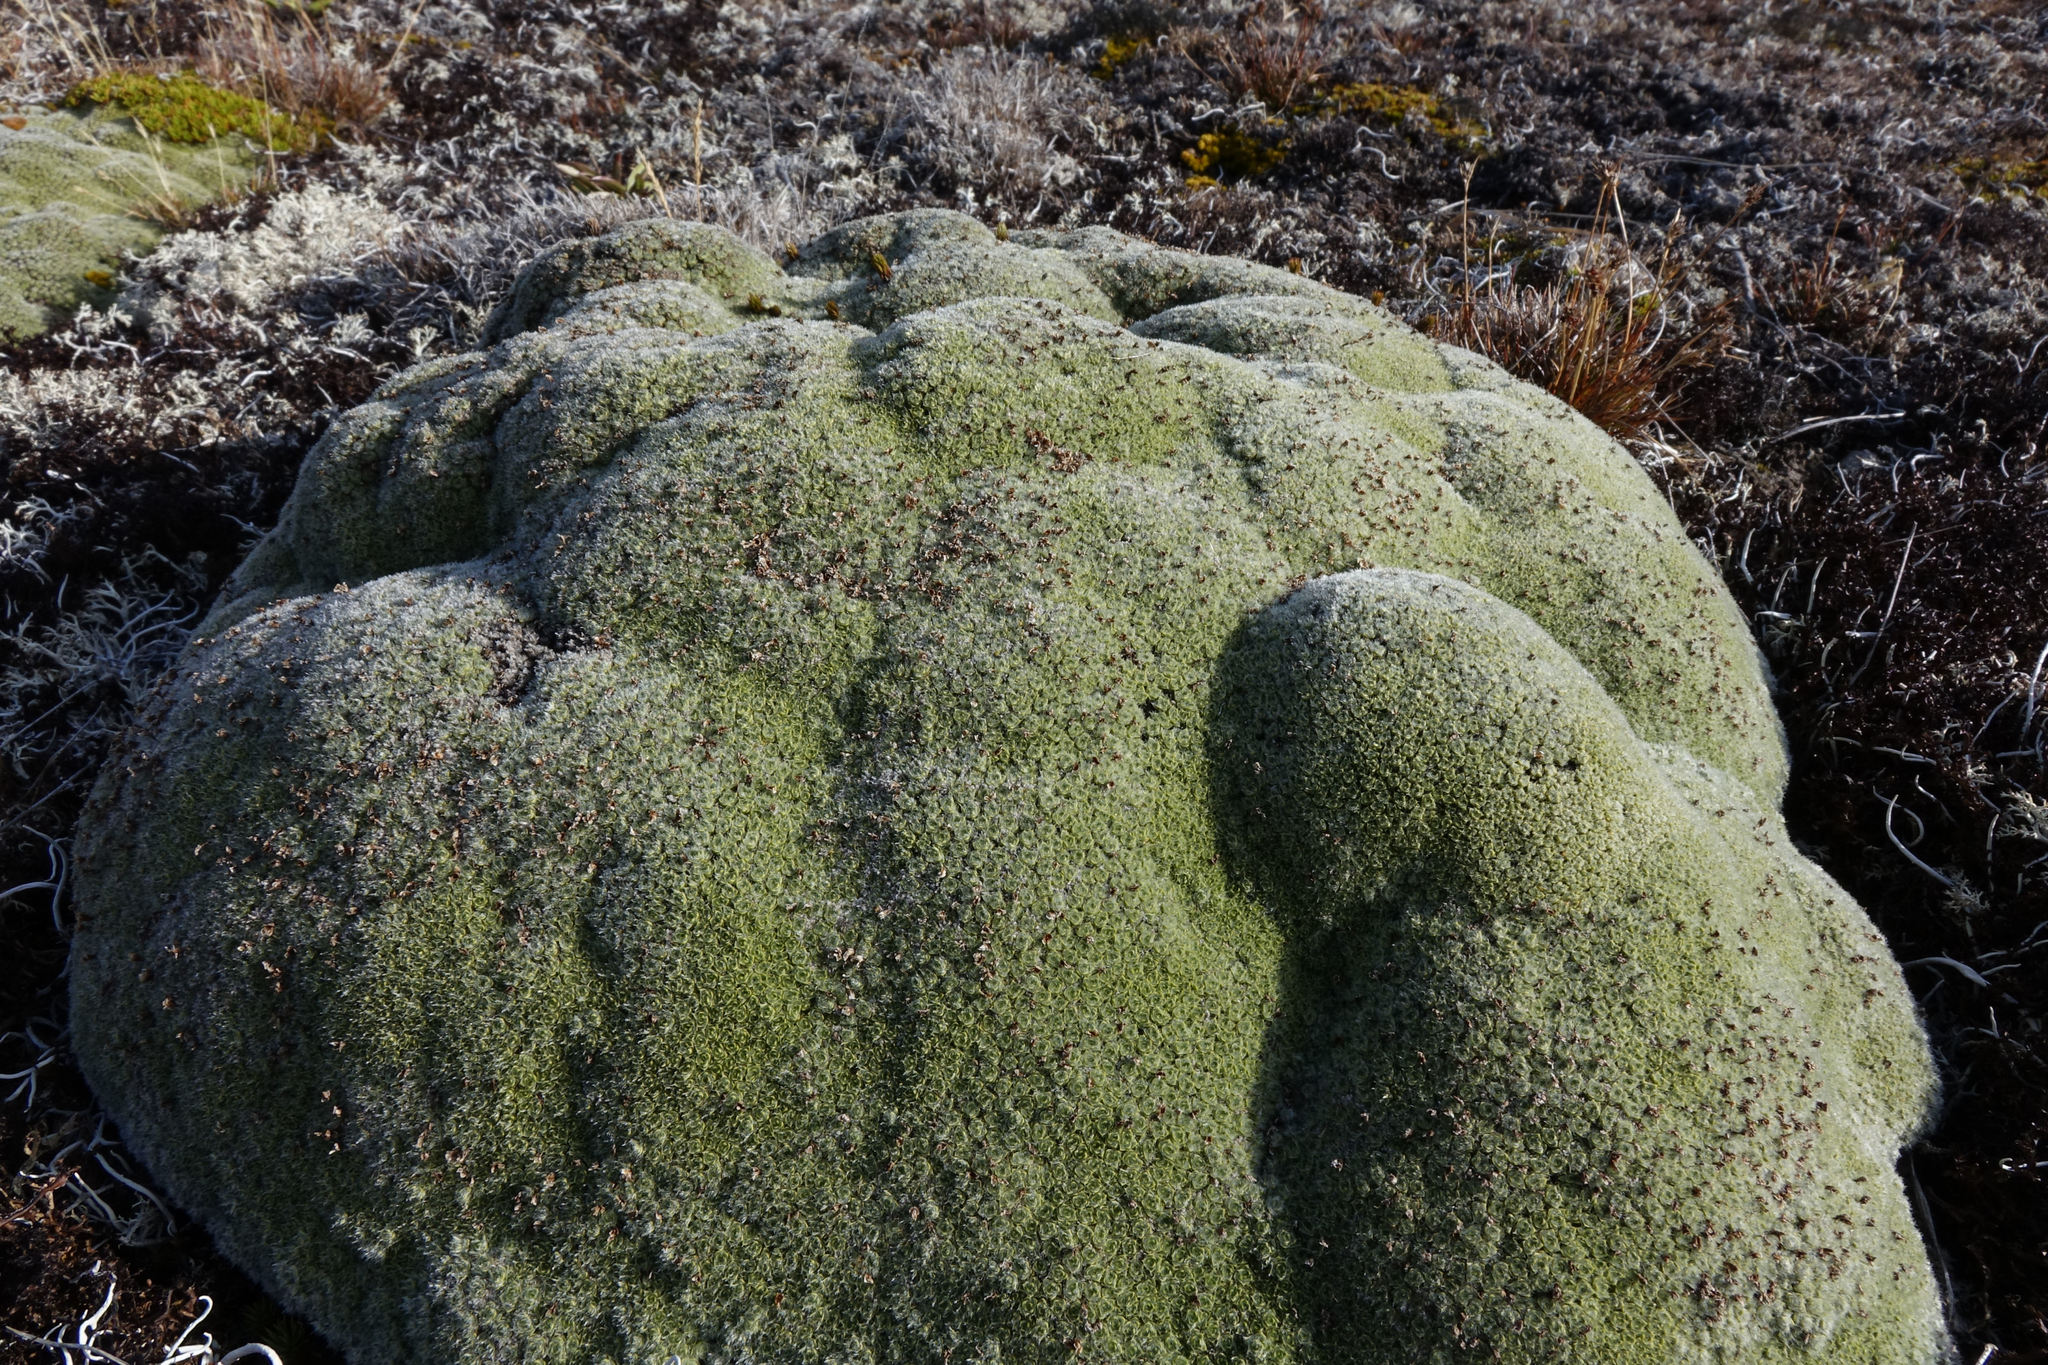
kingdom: Plantae
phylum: Tracheophyta
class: Magnoliopsida
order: Lamiales
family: Plantaginaceae
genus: Veronica
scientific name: Veronica thomsonii
